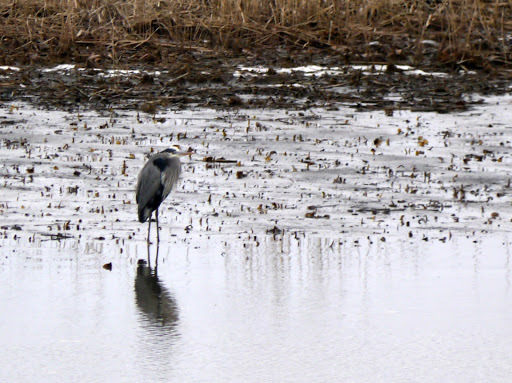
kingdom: Animalia
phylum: Chordata
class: Aves
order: Pelecaniformes
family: Ardeidae
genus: Ardea
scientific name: Ardea herodias
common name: Great blue heron
